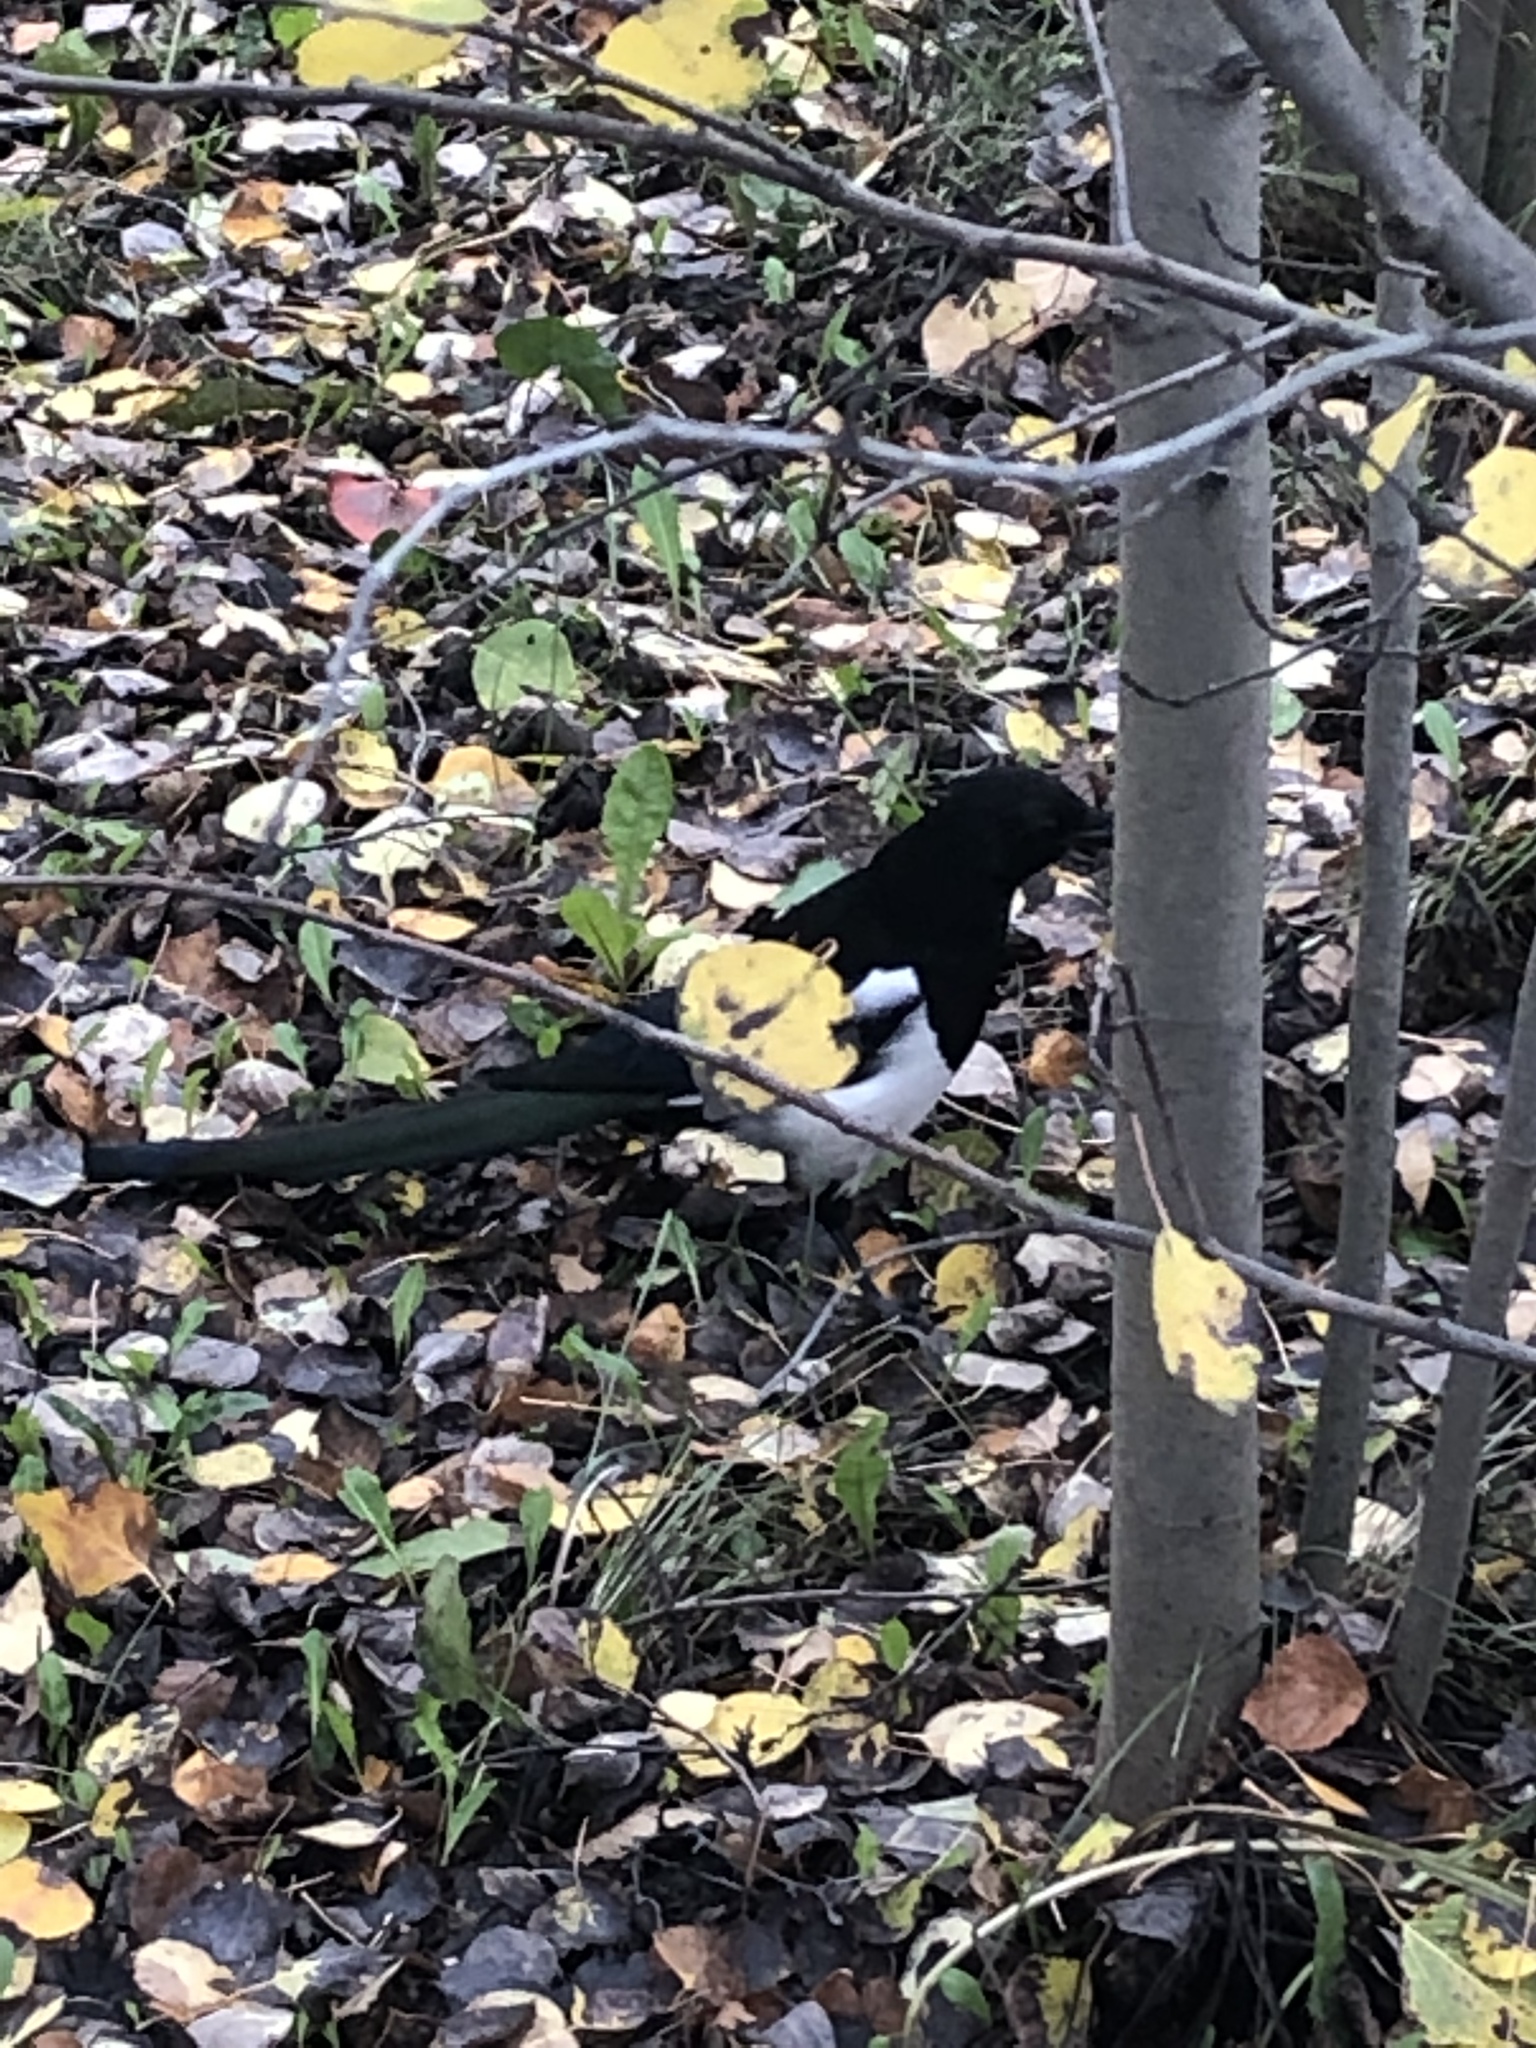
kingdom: Animalia
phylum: Chordata
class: Aves
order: Passeriformes
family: Corvidae
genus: Pica
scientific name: Pica hudsonia
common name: Black-billed magpie
